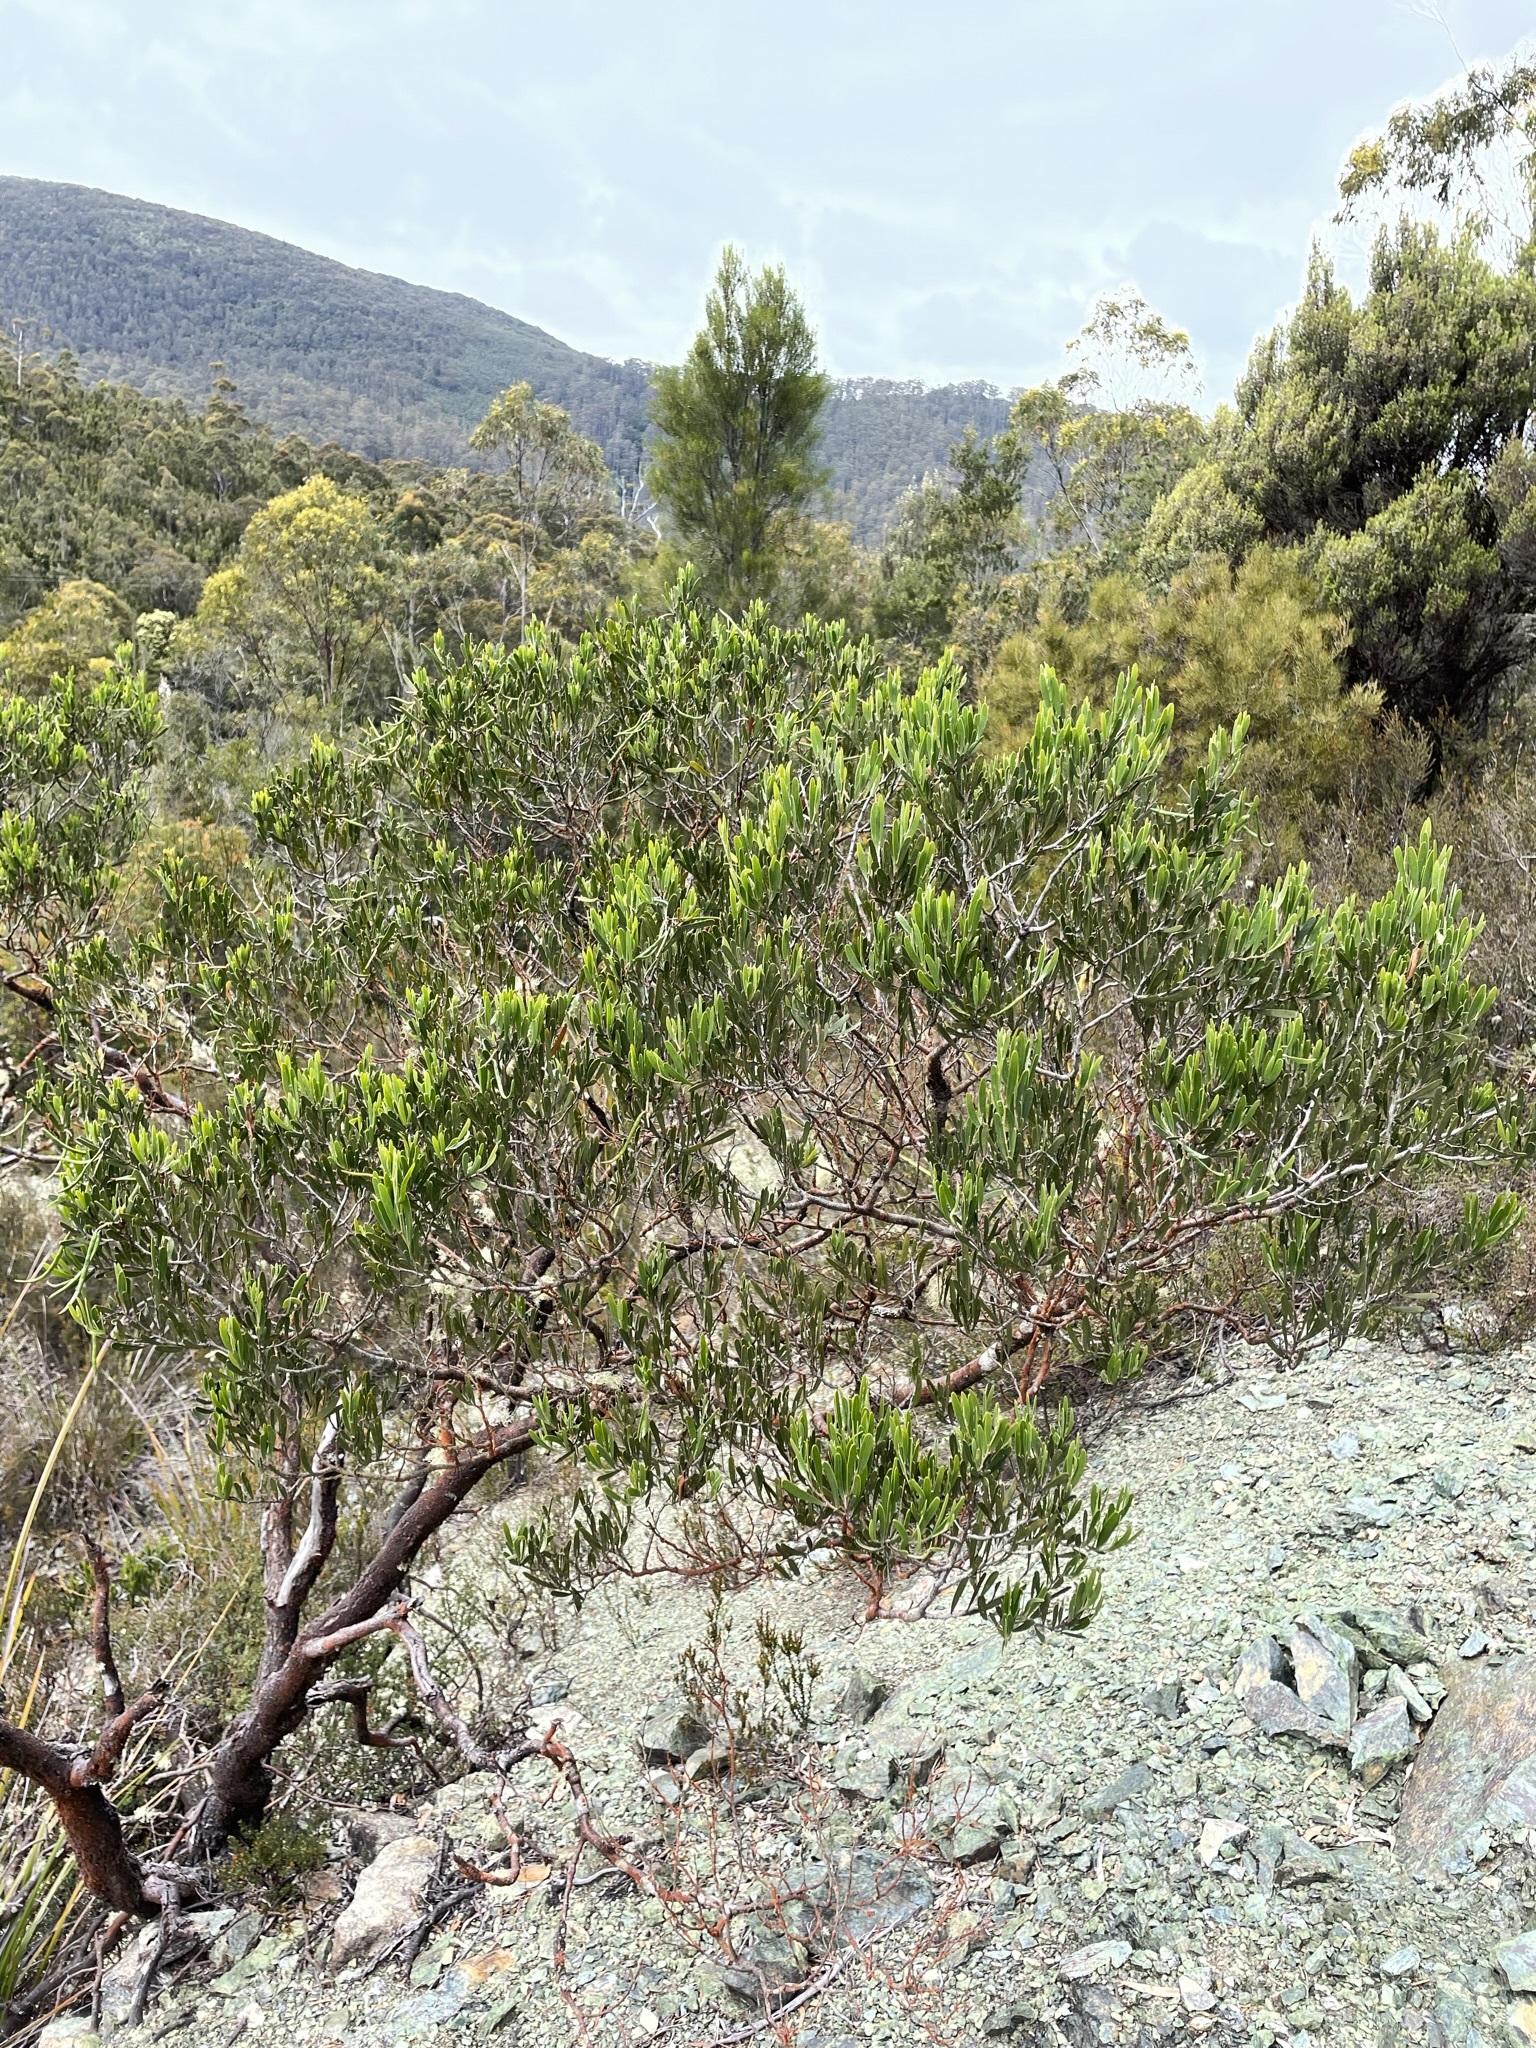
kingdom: Plantae
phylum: Tracheophyta
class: Magnoliopsida
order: Fabales
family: Fabaceae
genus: Acacia
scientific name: Acacia mucronata
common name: Variable sallow wattle
